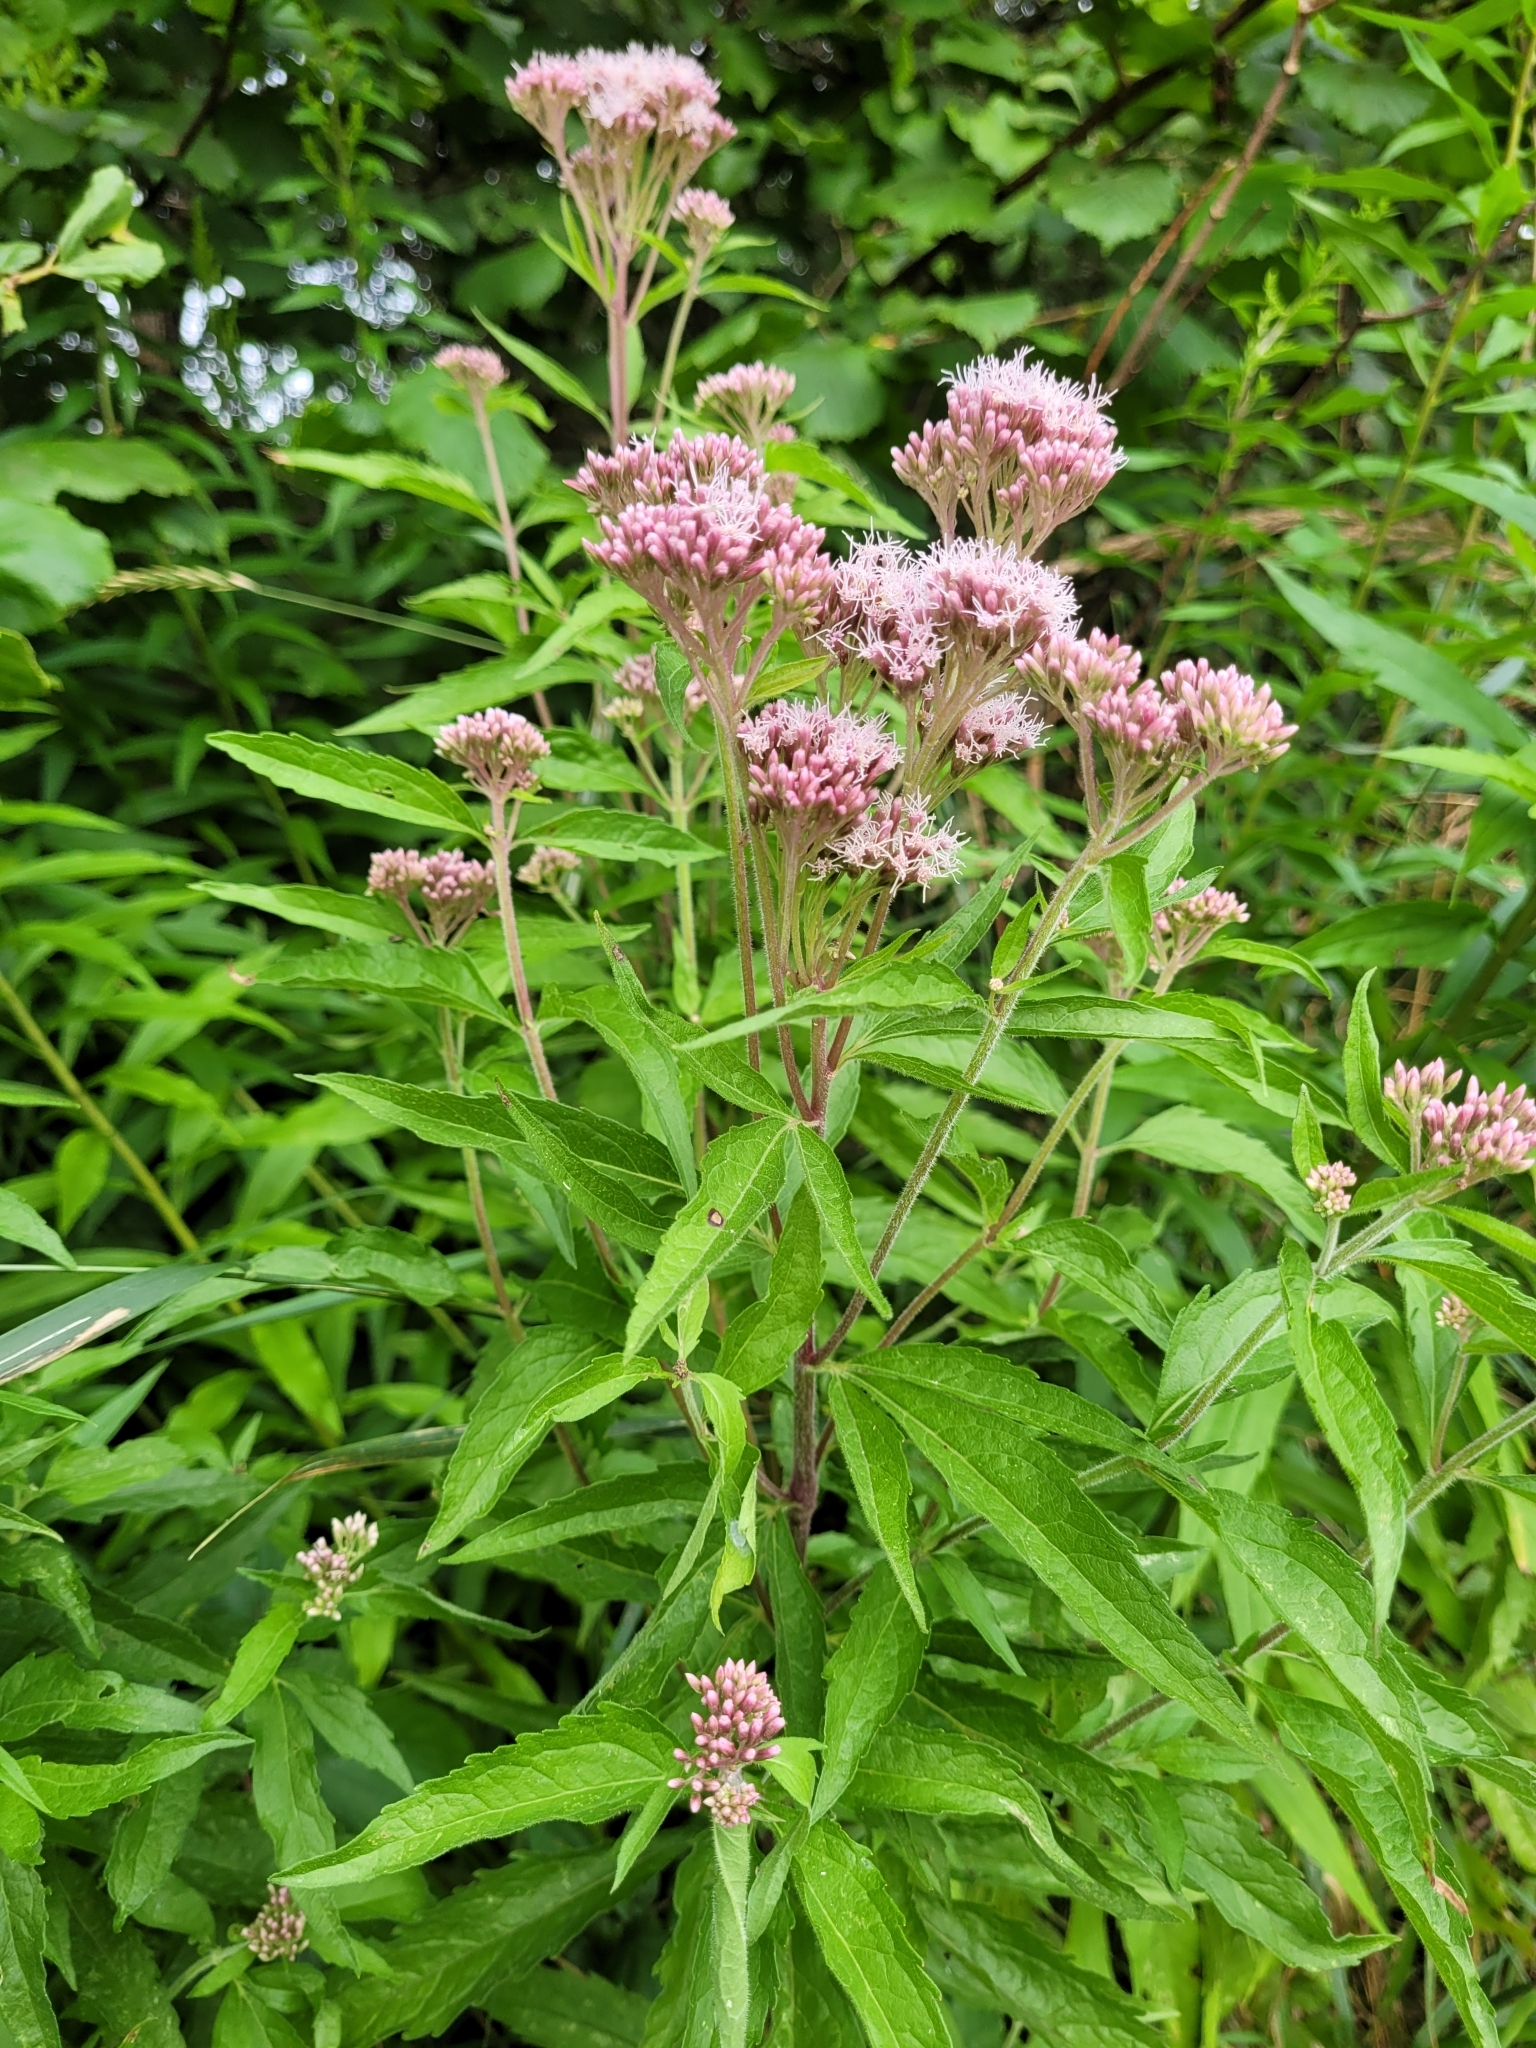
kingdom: Plantae
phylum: Tracheophyta
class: Magnoliopsida
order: Asterales
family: Asteraceae
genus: Eupatorium
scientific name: Eupatorium cannabinum
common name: Hemp-agrimony
